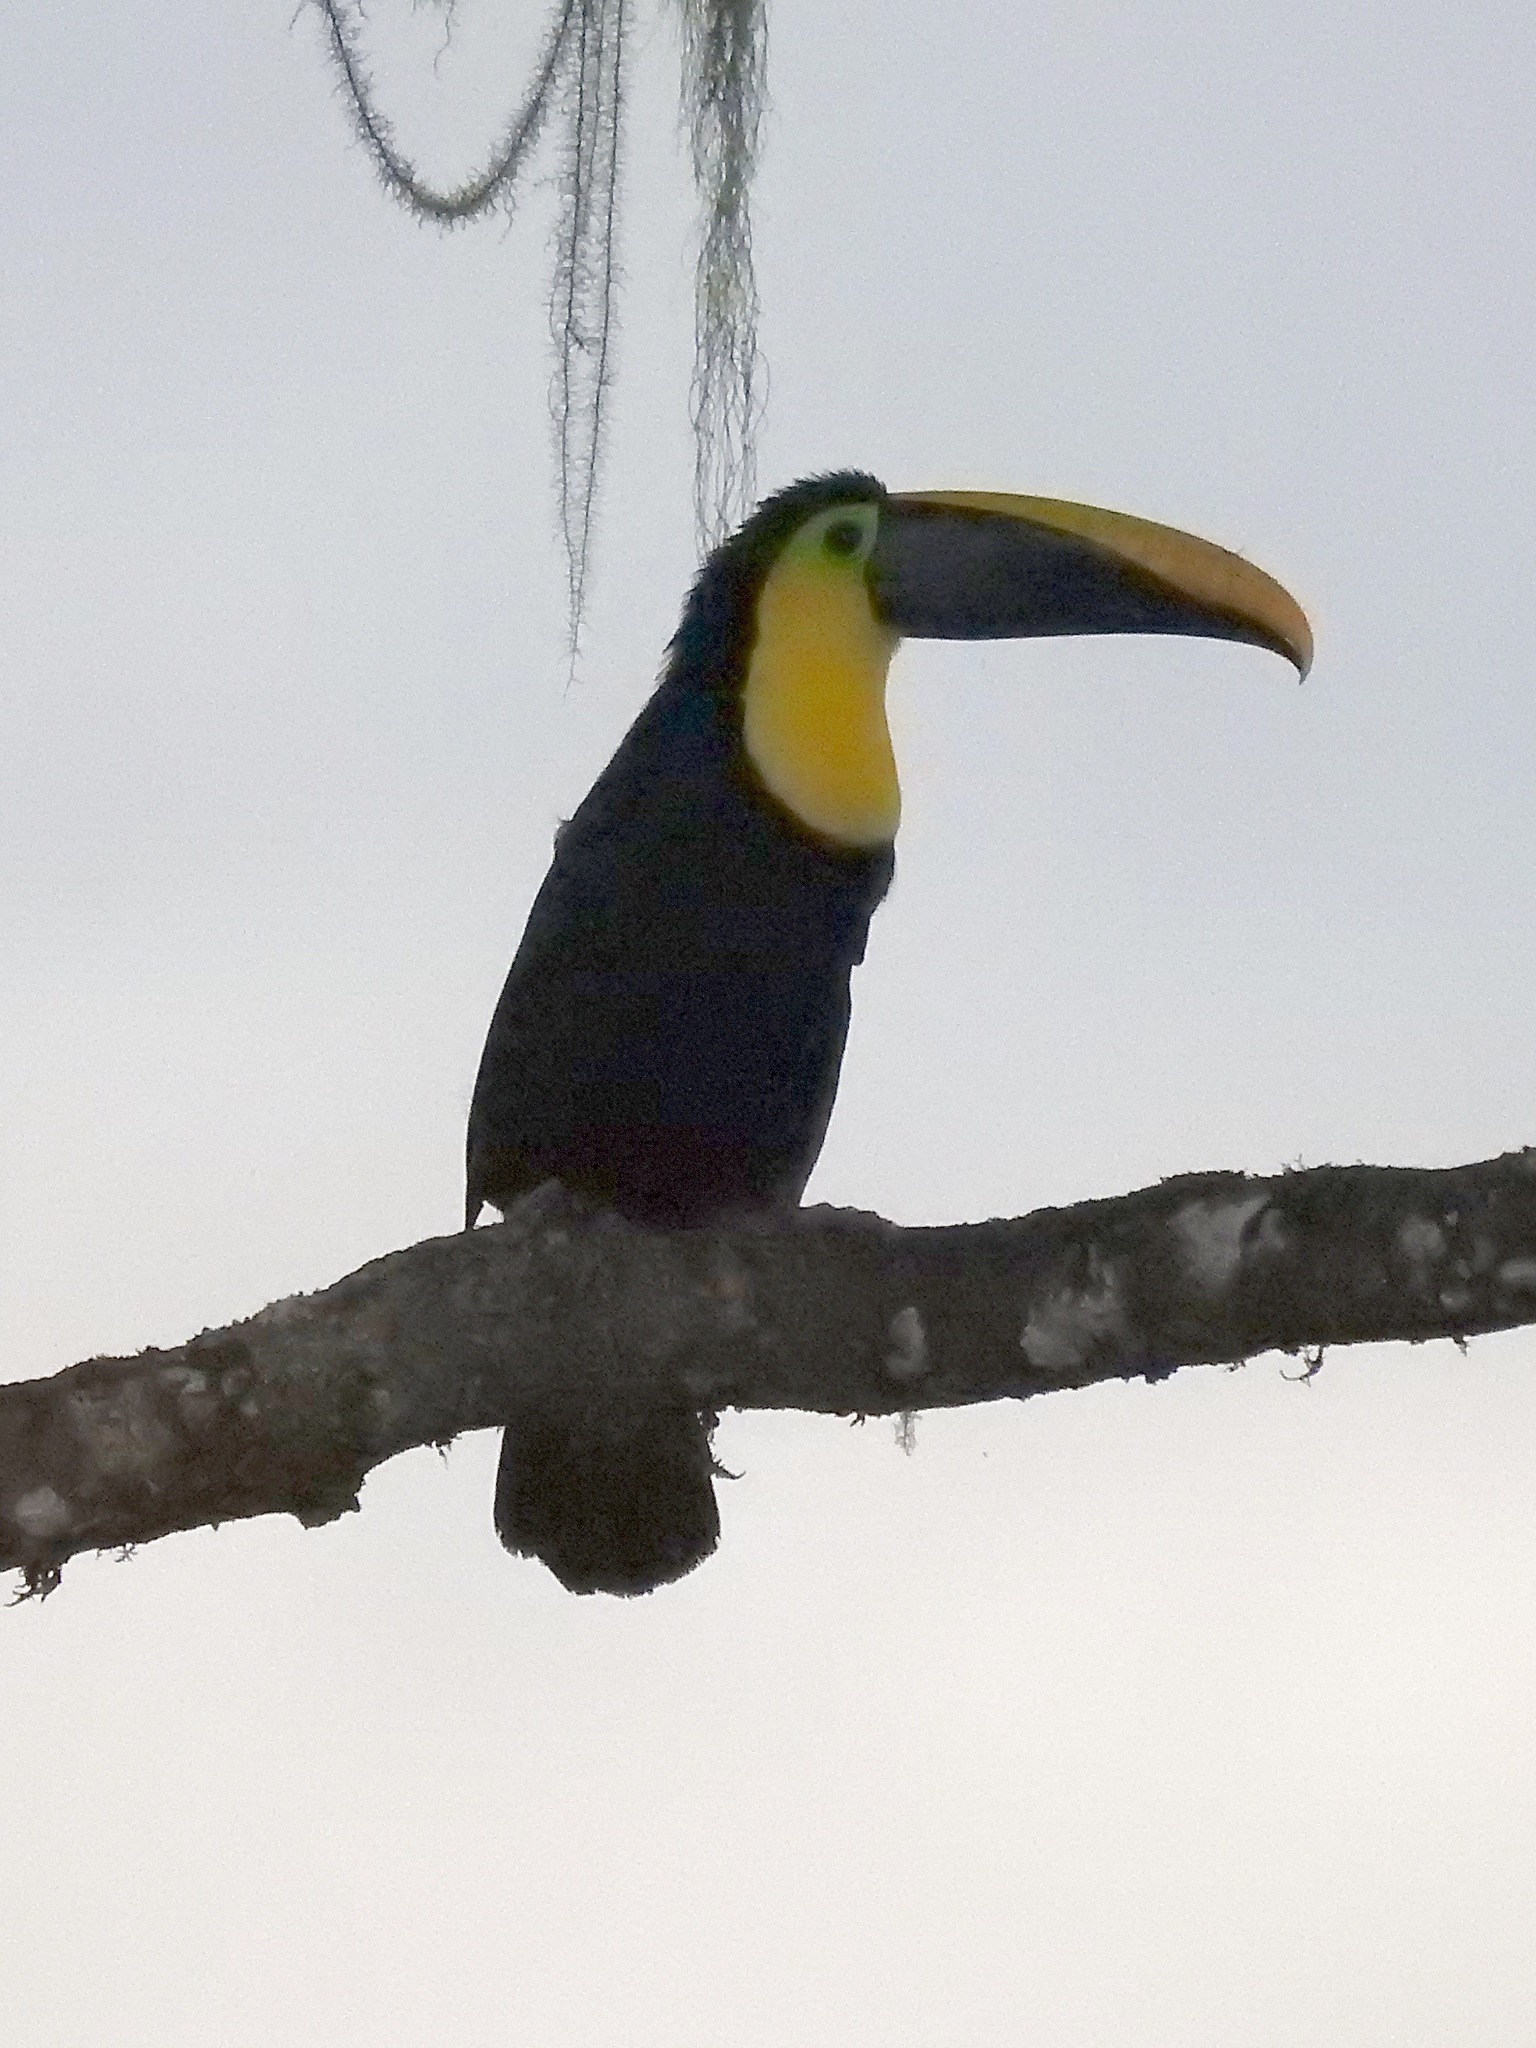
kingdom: Animalia
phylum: Chordata
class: Aves
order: Piciformes
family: Ramphastidae
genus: Ramphastos
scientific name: Ramphastos ambiguus
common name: Yellow-throated toucan
